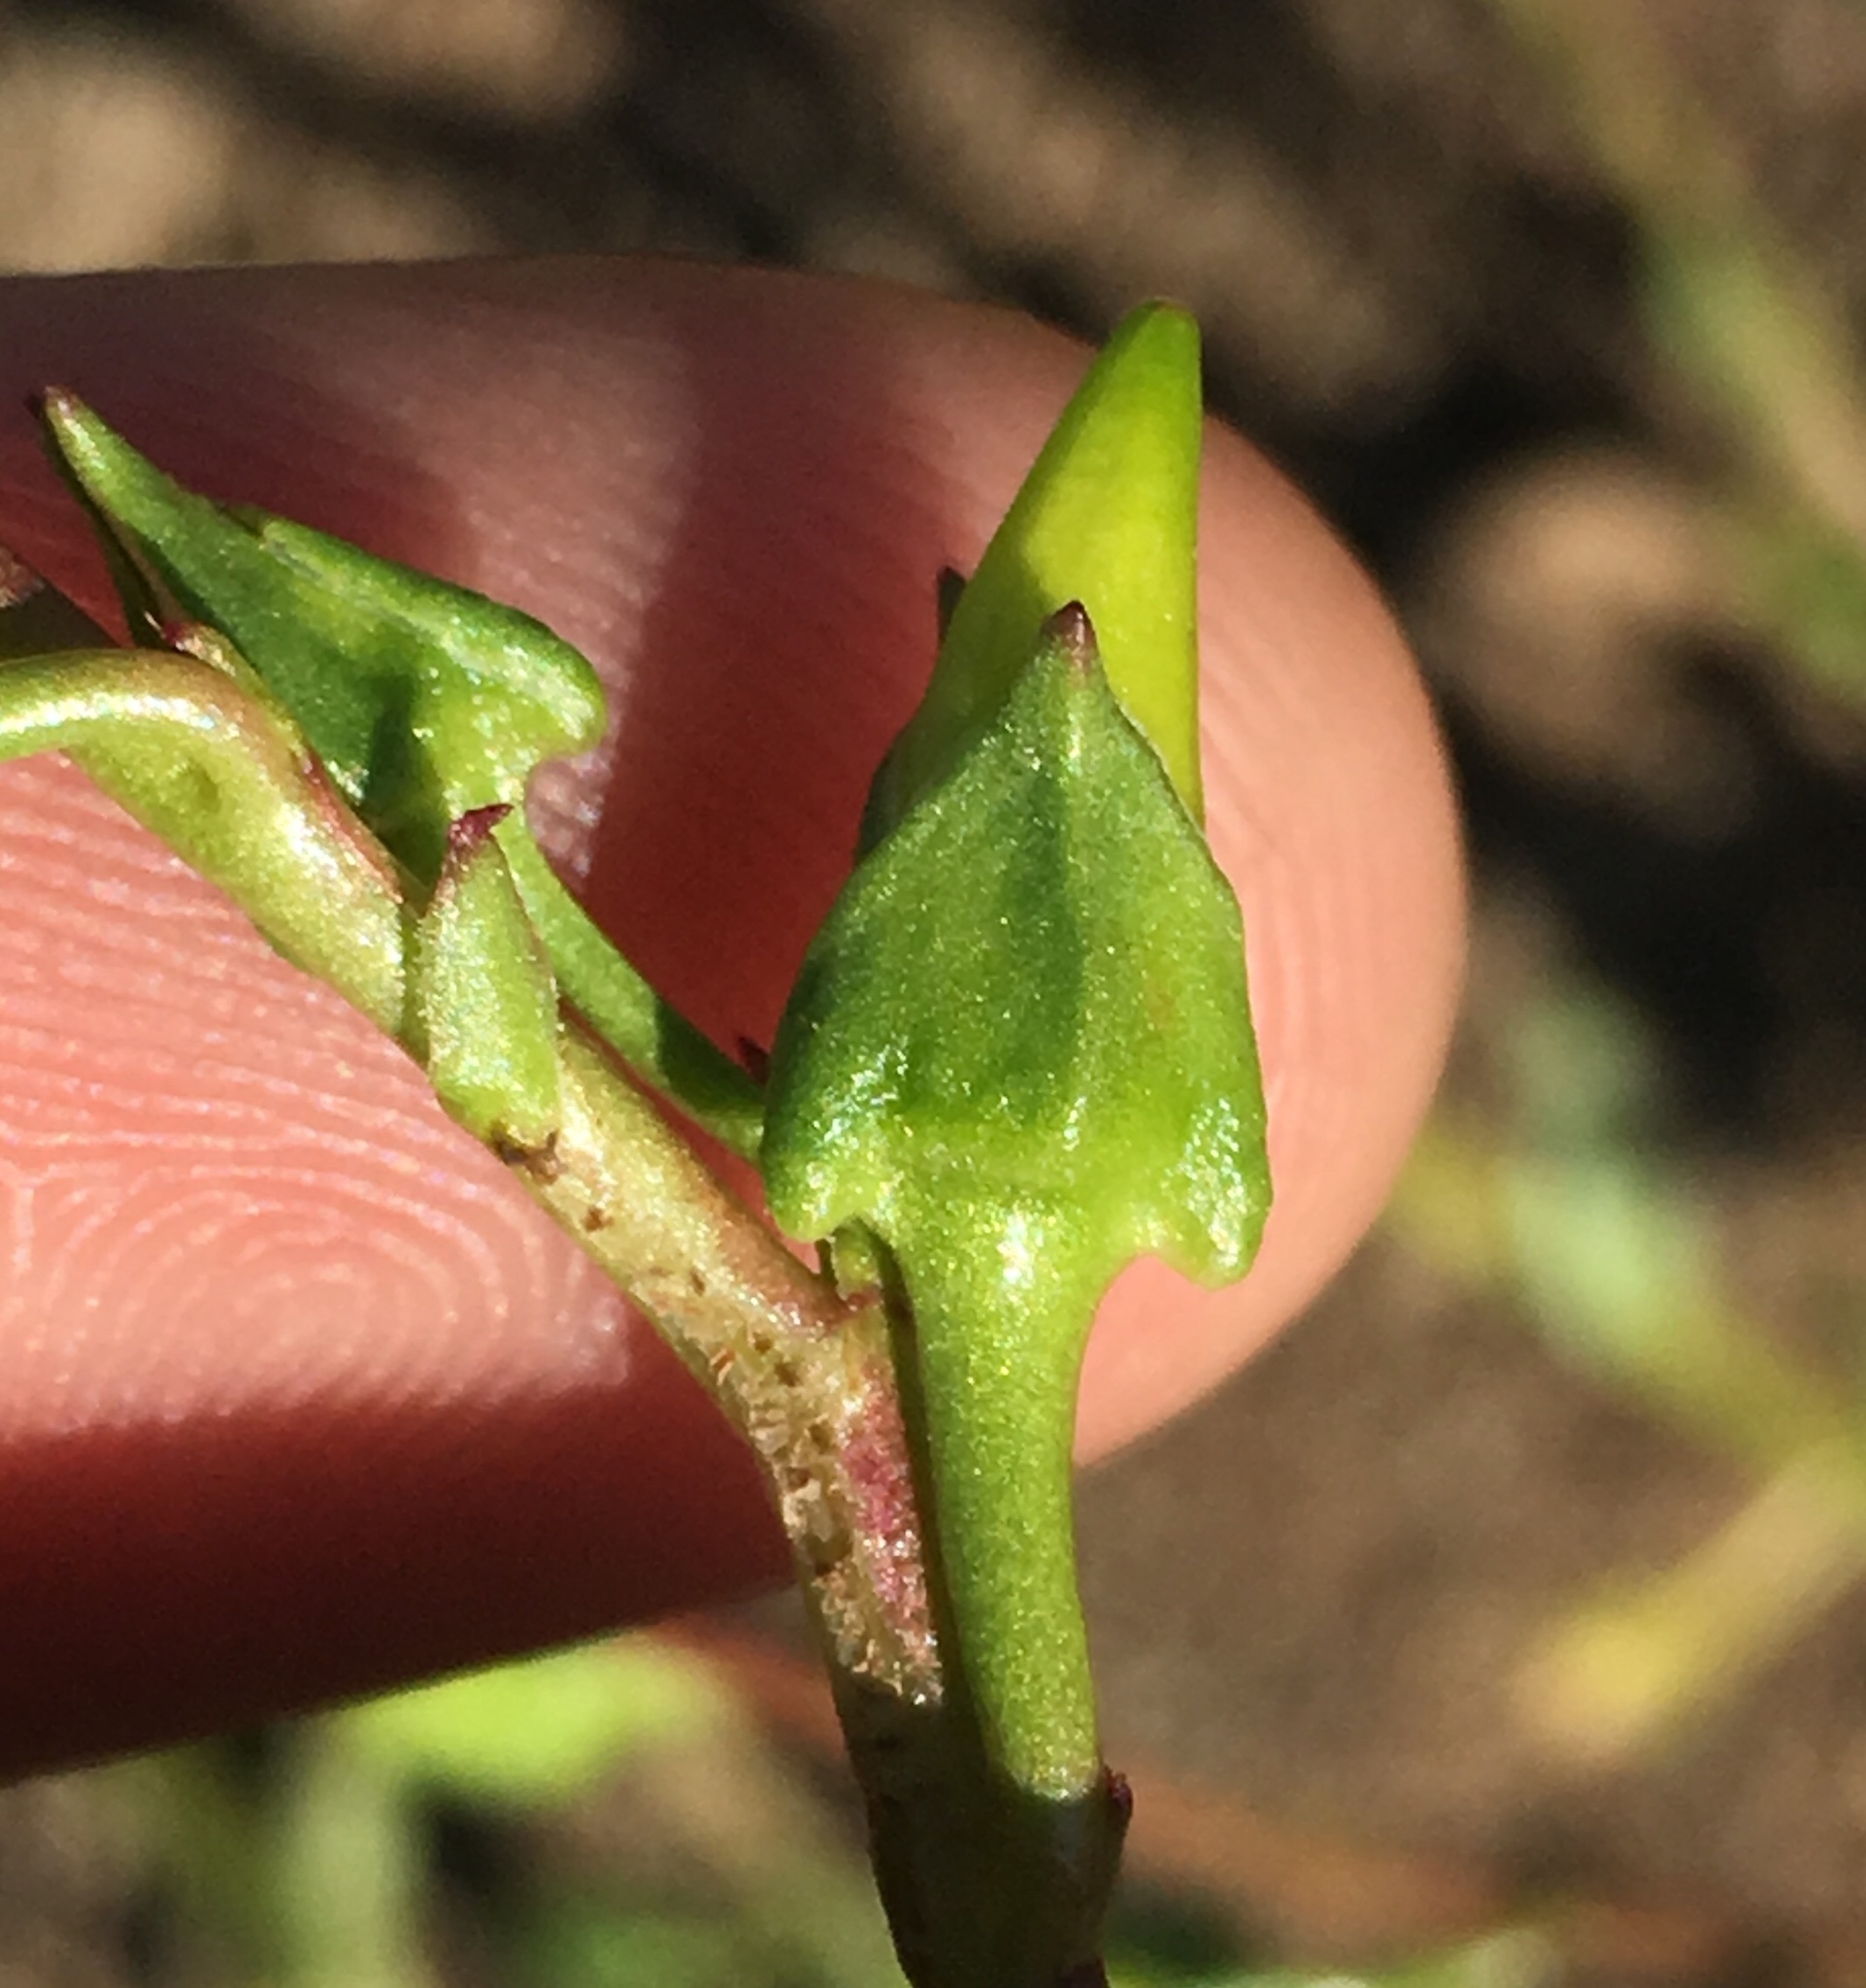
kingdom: Plantae
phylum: Tracheophyta
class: Magnoliopsida
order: Caryophyllales
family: Montiaceae
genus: Calandrinia
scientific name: Calandrinia breweri
